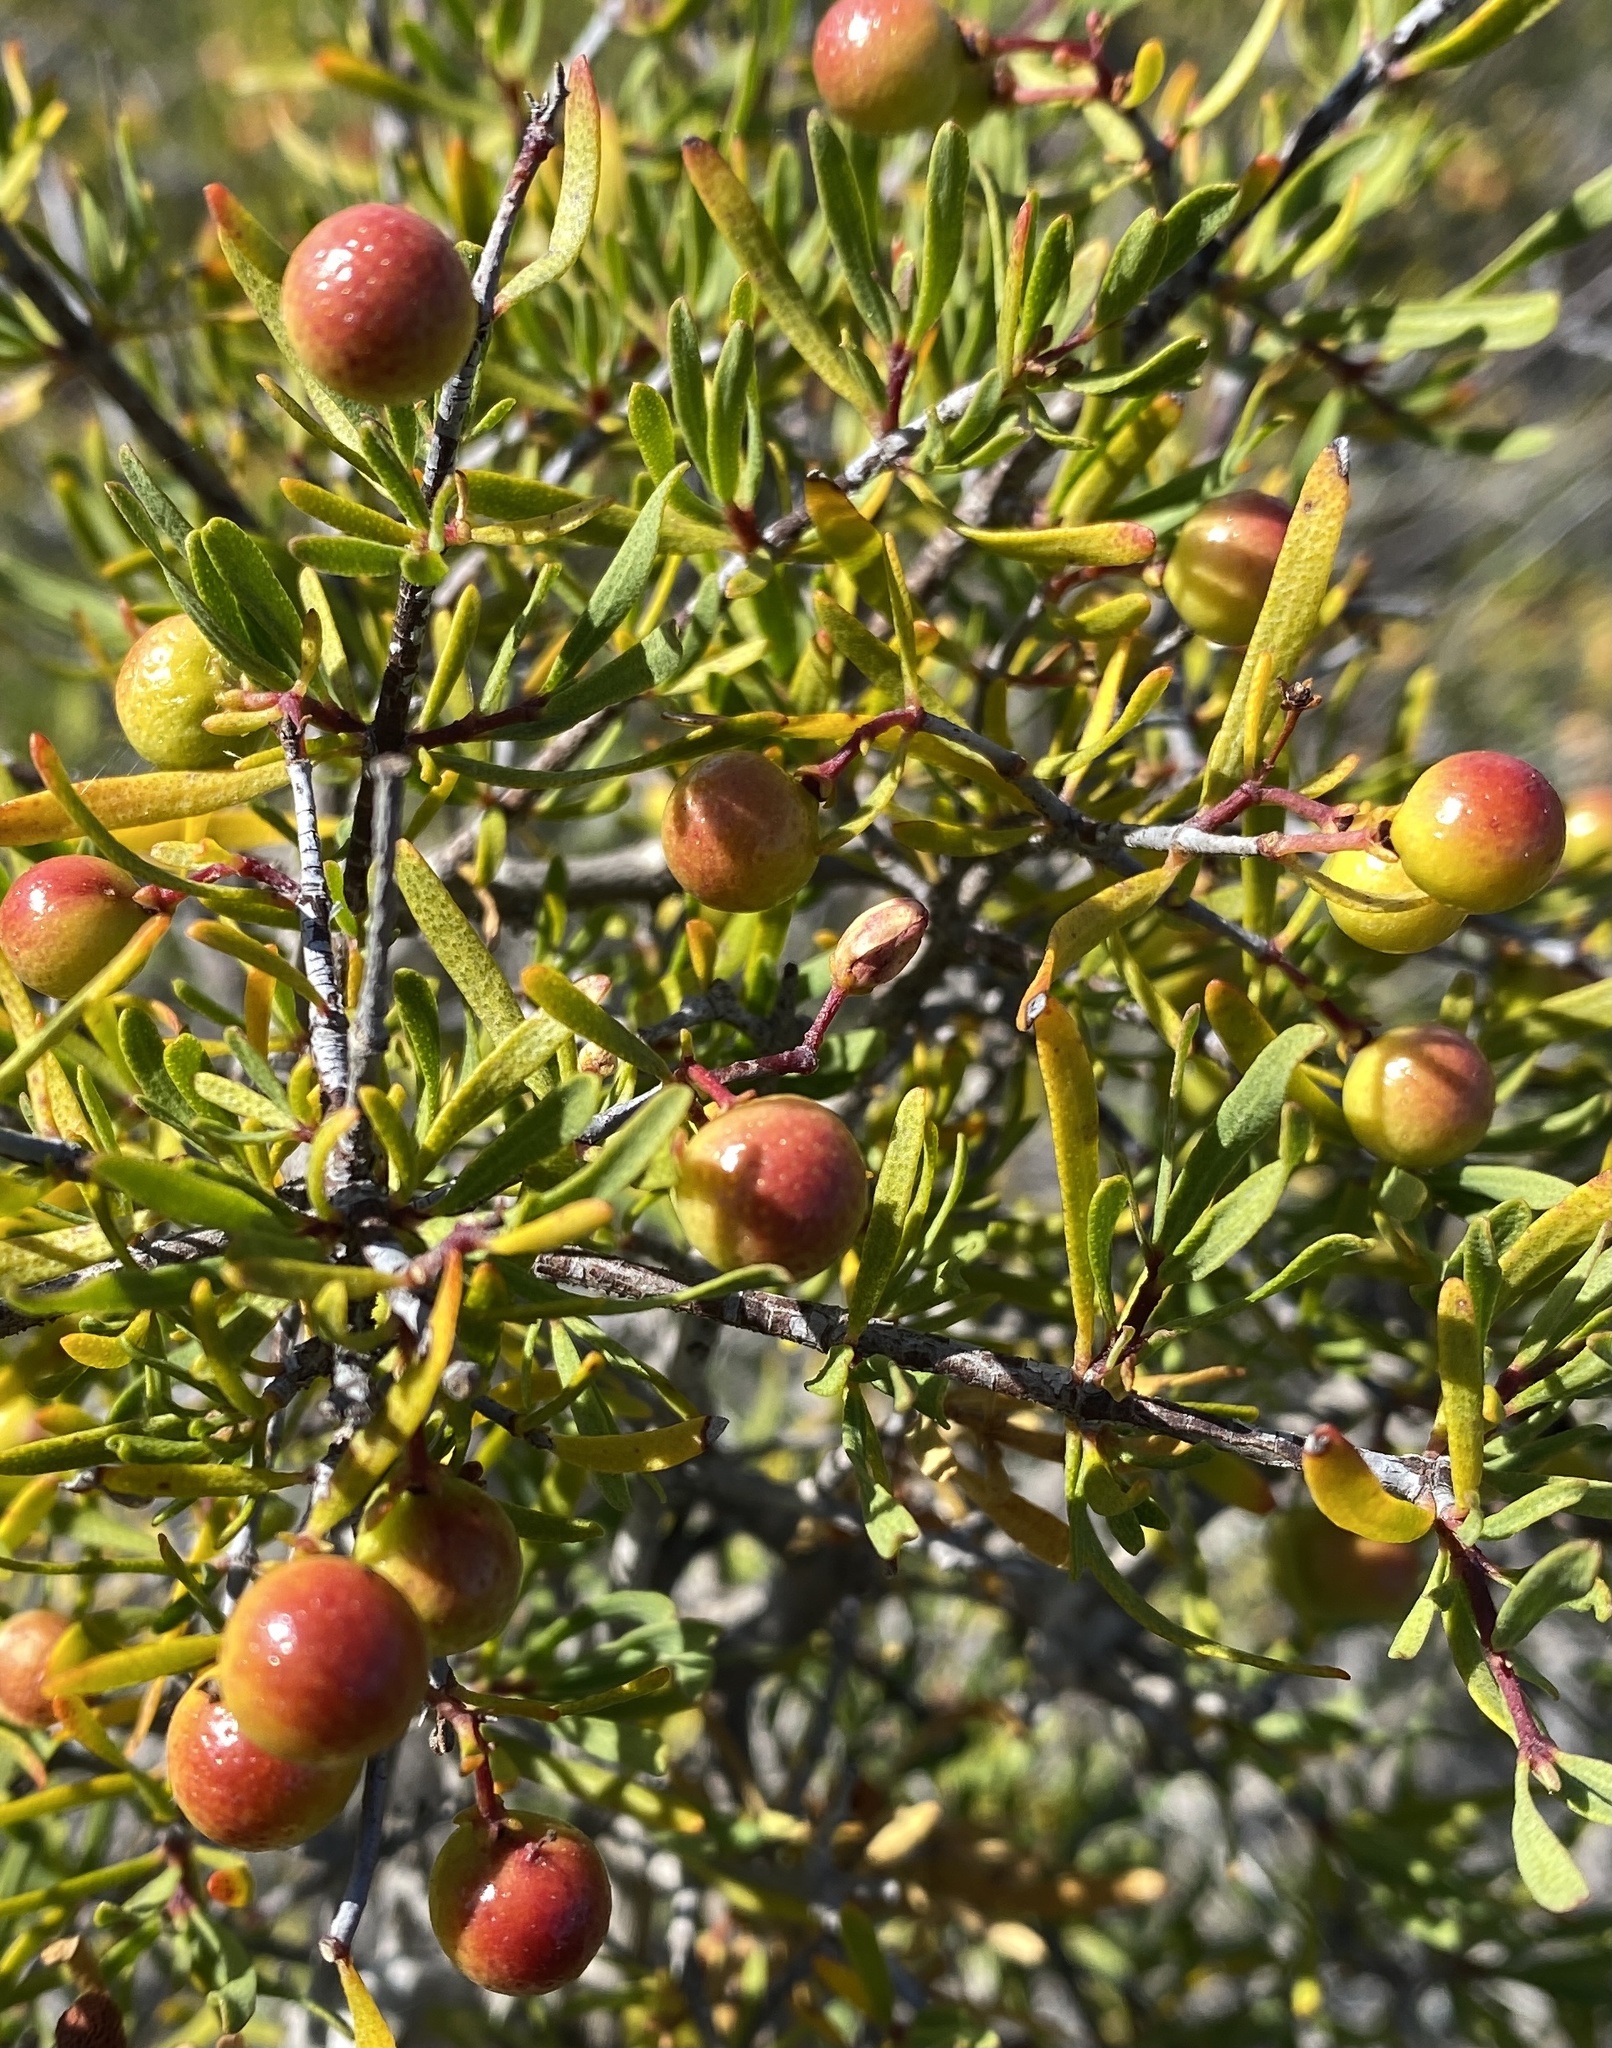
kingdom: Plantae
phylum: Tracheophyta
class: Magnoliopsida
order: Sapindales
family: Rutaceae
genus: Cneoridium
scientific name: Cneoridium dumosum
